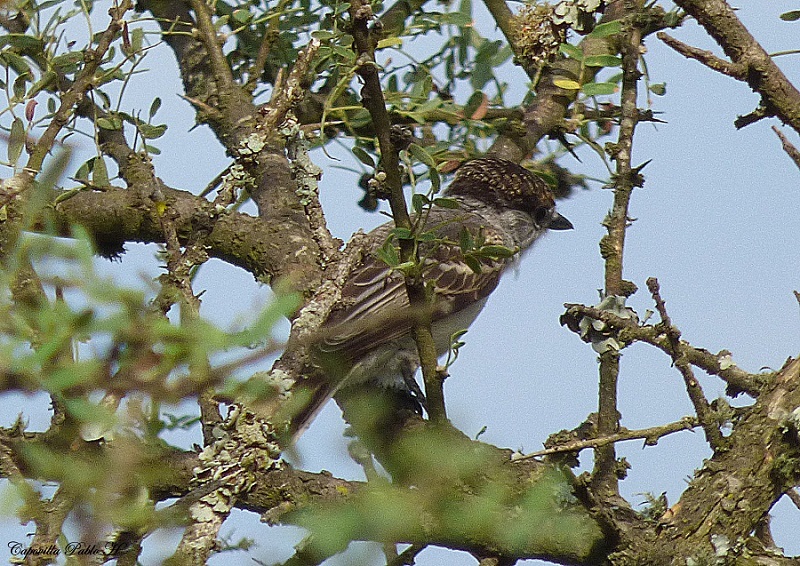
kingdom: Animalia
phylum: Chordata
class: Aves
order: Passeriformes
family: Cotingidae
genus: Xenopsaris
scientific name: Xenopsaris albinucha
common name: White-naped xenopsaris
